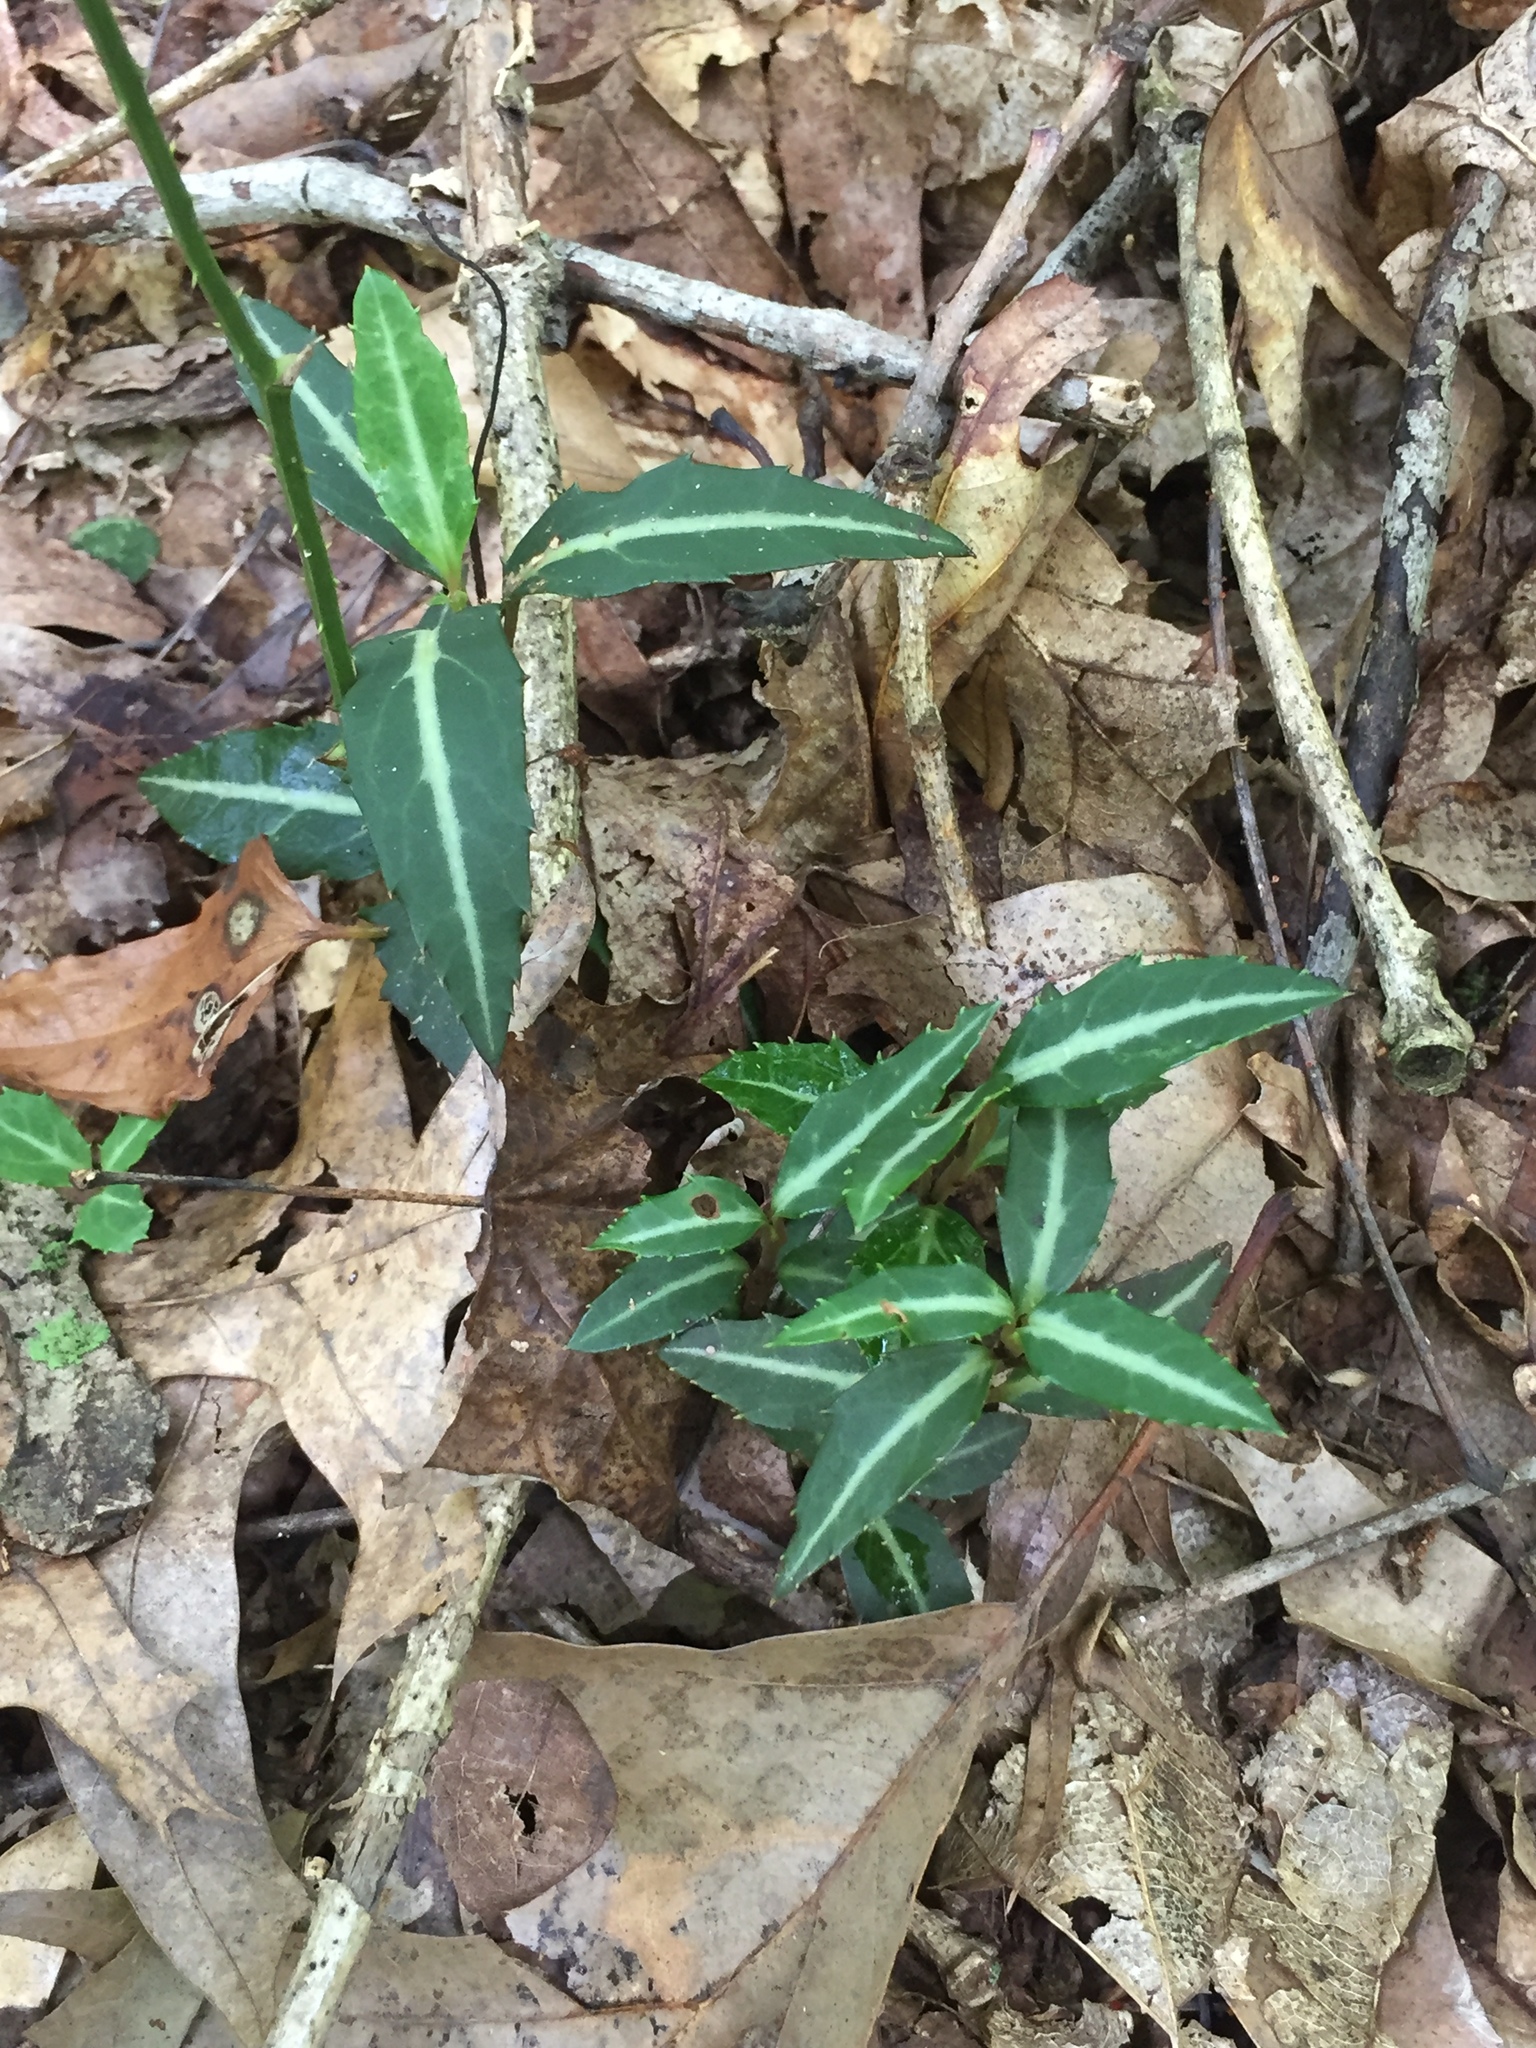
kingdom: Plantae
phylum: Tracheophyta
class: Magnoliopsida
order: Ericales
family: Ericaceae
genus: Chimaphila
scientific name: Chimaphila maculata
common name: Spotted pipsissewa
